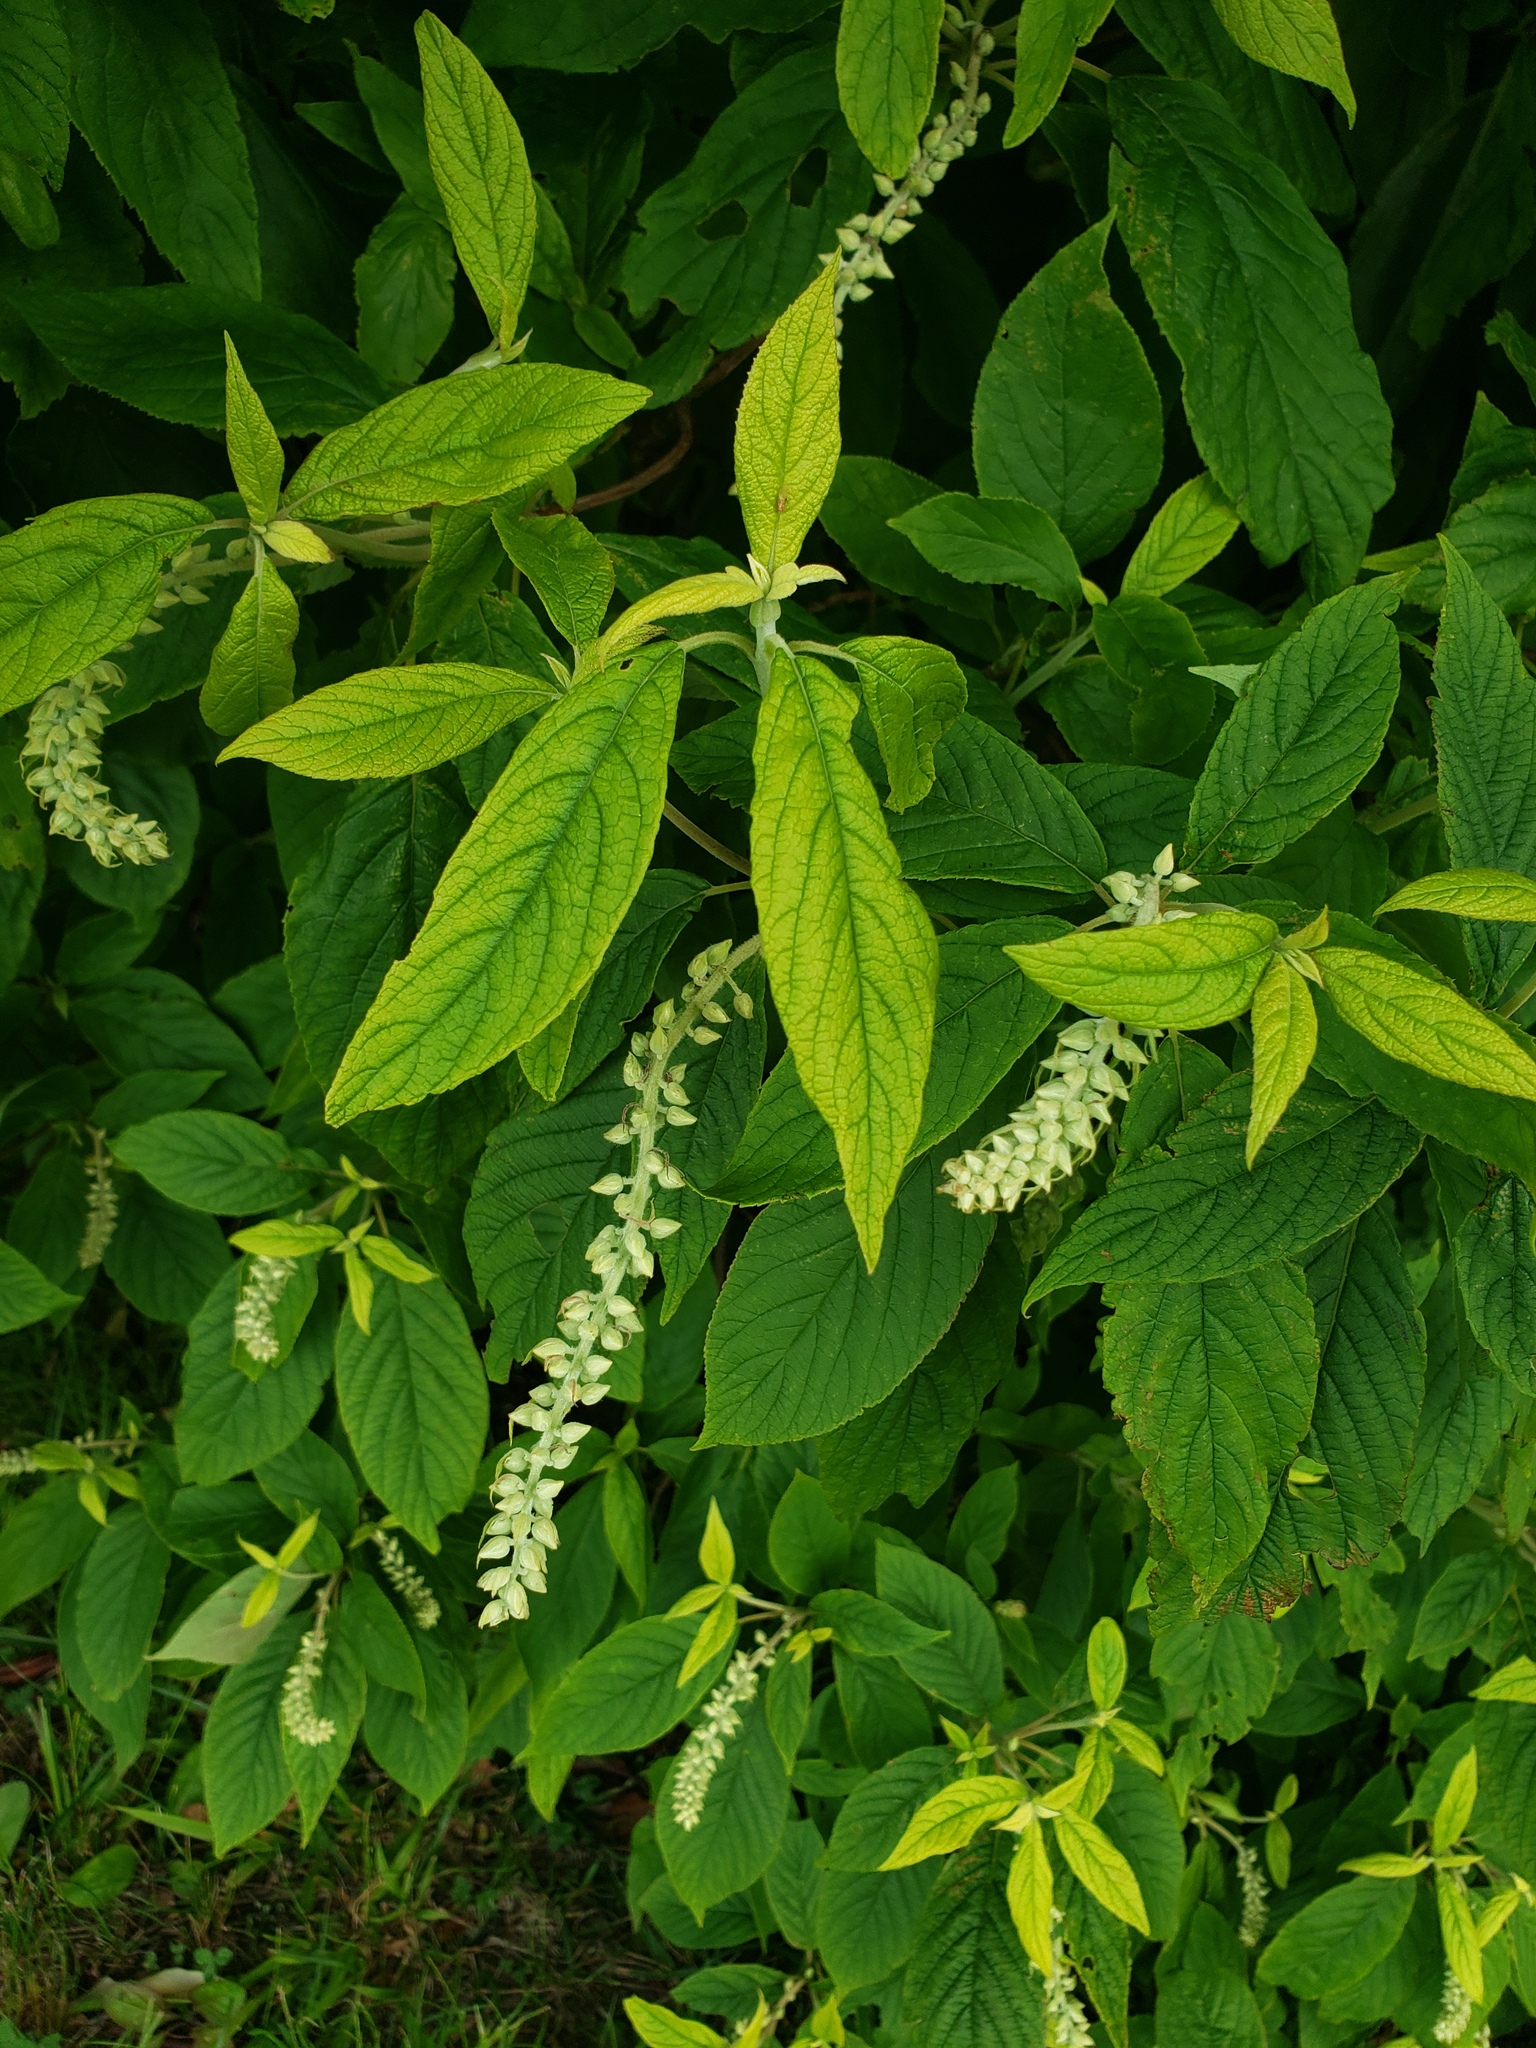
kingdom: Plantae
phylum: Tracheophyta
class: Magnoliopsida
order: Ericales
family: Clethraceae
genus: Clethra
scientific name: Clethra acuminata
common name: Mountain sweet pepperbush
